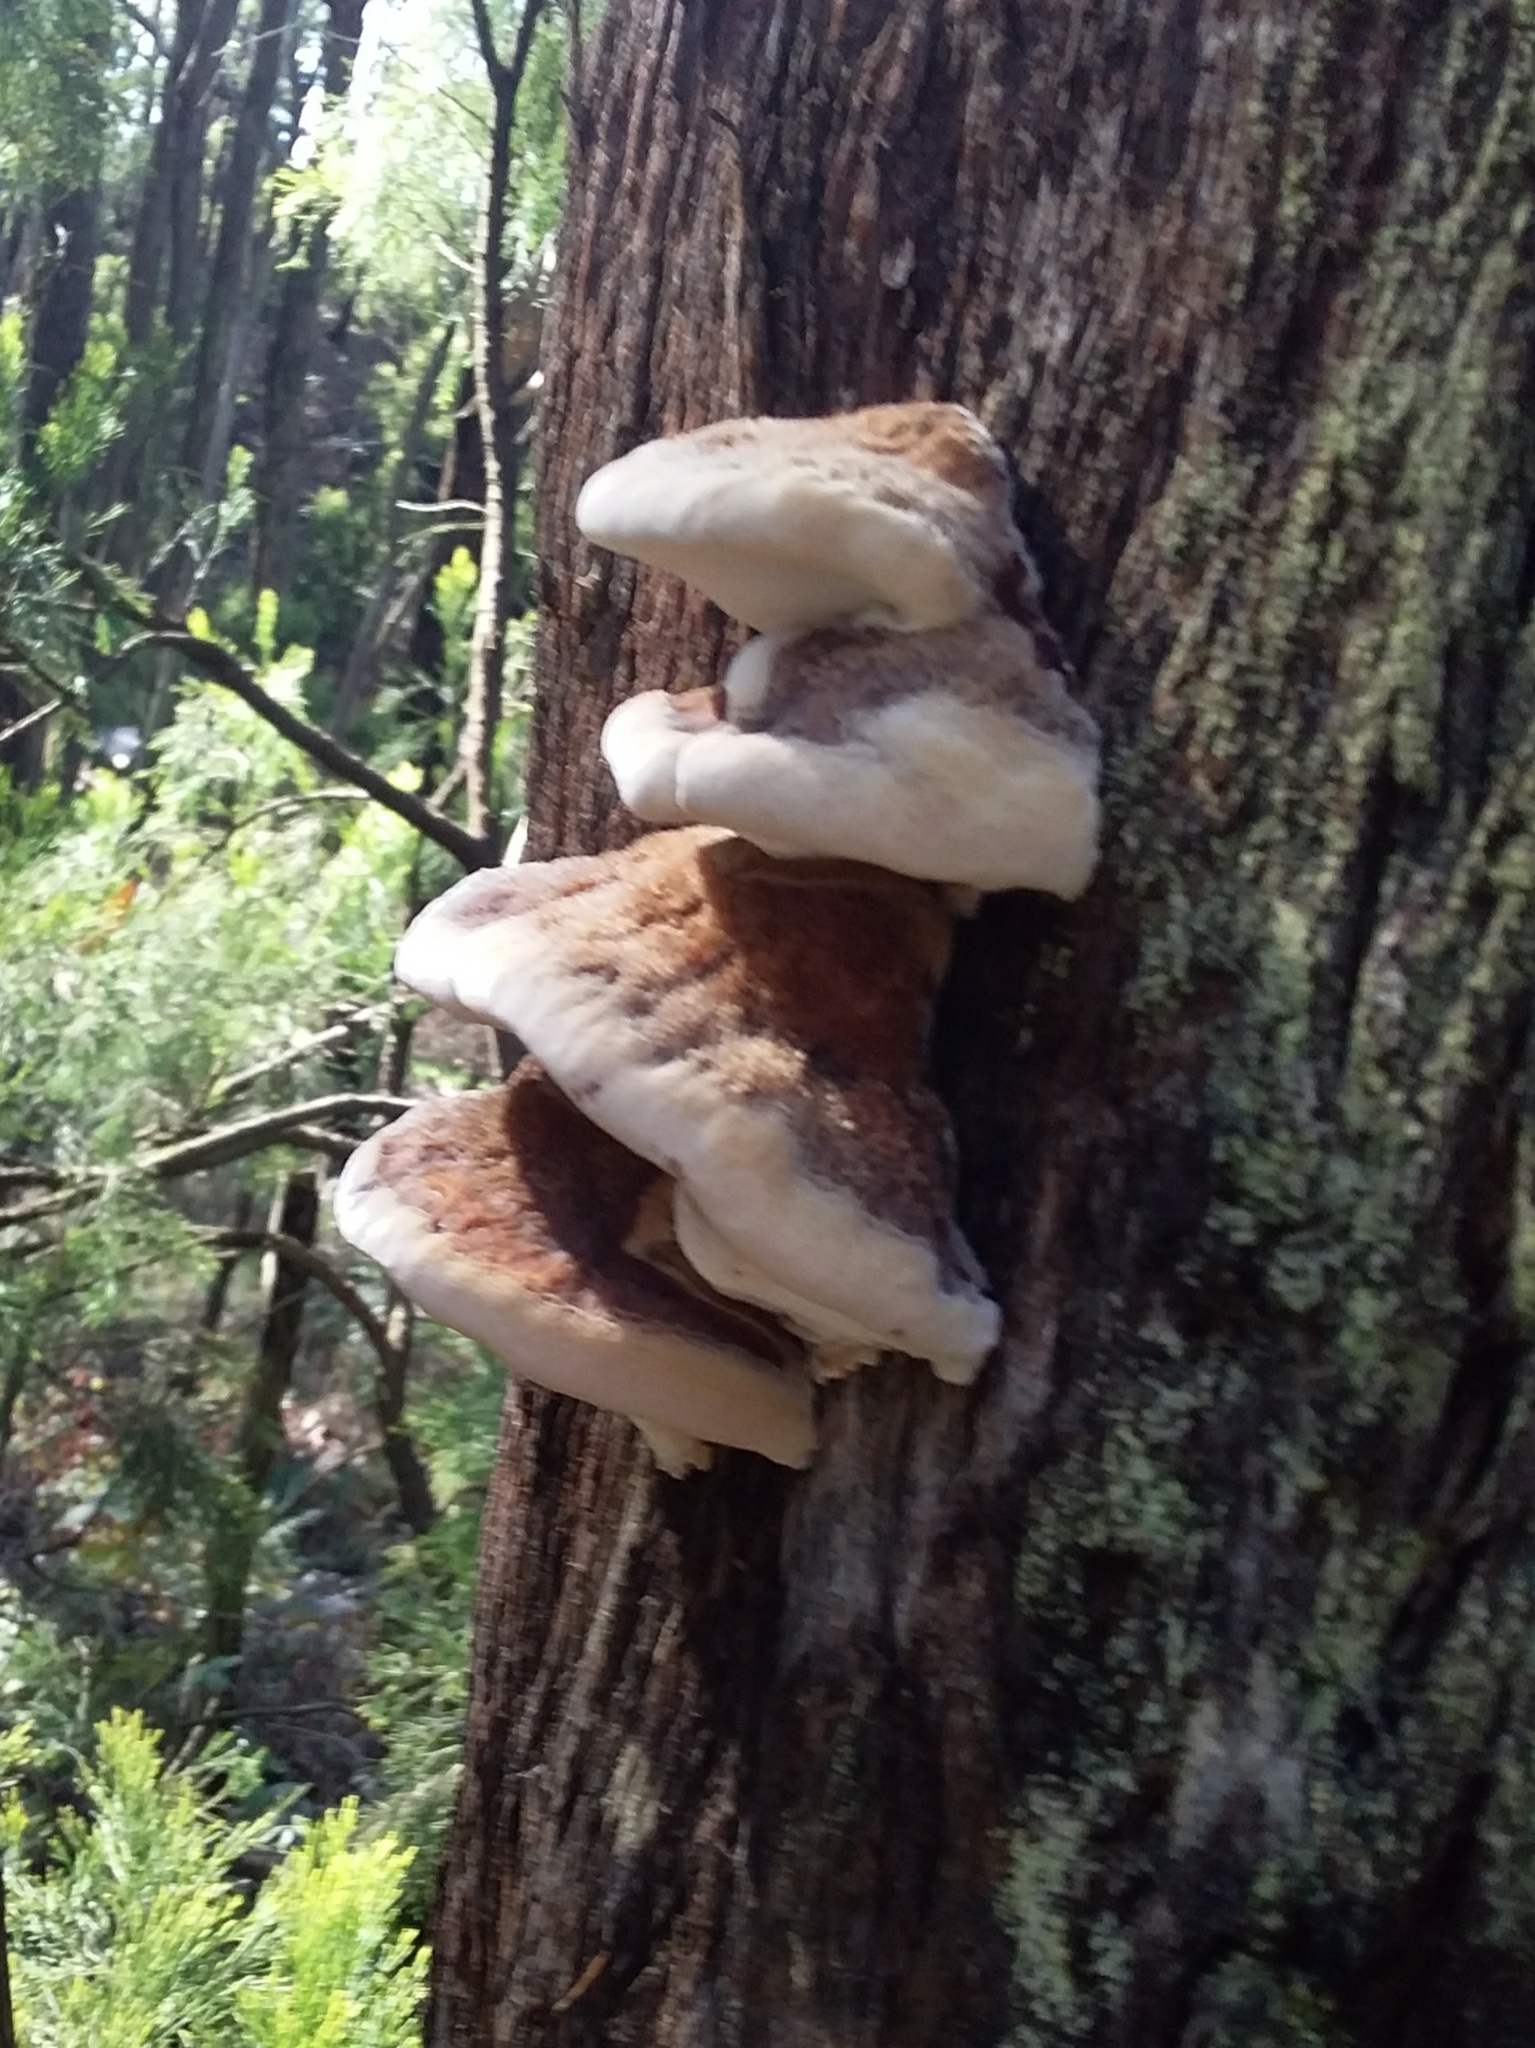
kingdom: Fungi
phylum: Basidiomycota
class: Agaricomycetes
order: Polyporales
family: Dacryobolaceae
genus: Oligoporus
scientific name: Oligoporus pelliculosus
